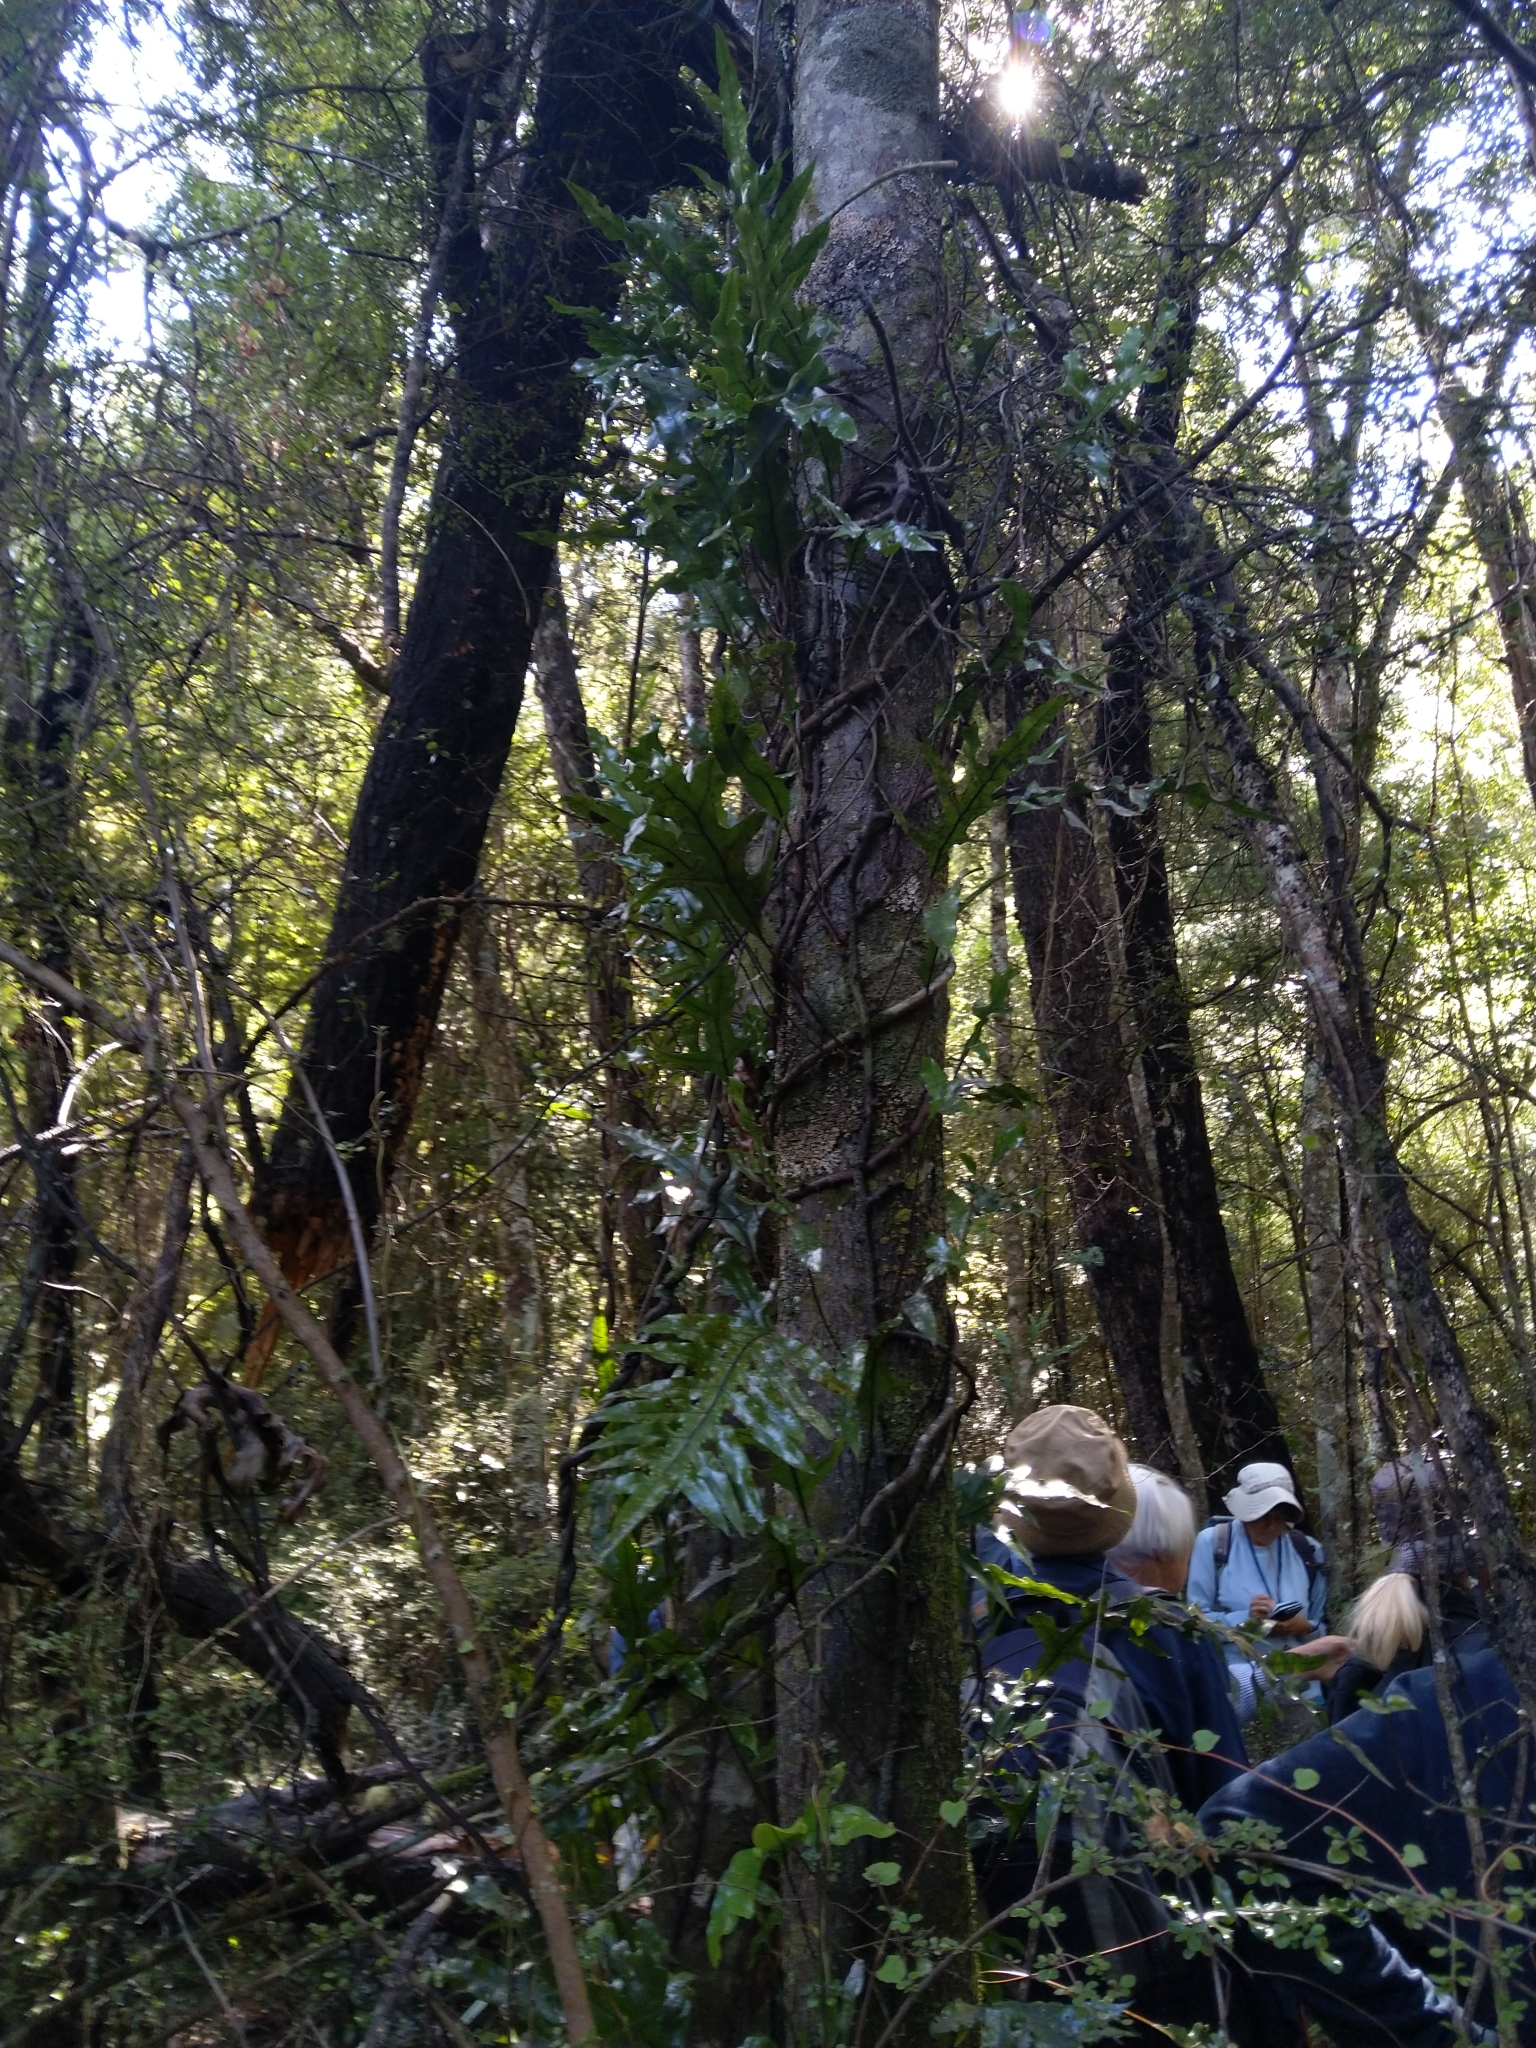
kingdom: Plantae
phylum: Tracheophyta
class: Polypodiopsida
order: Polypodiales
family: Polypodiaceae
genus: Lecanopteris
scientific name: Lecanopteris pustulata
